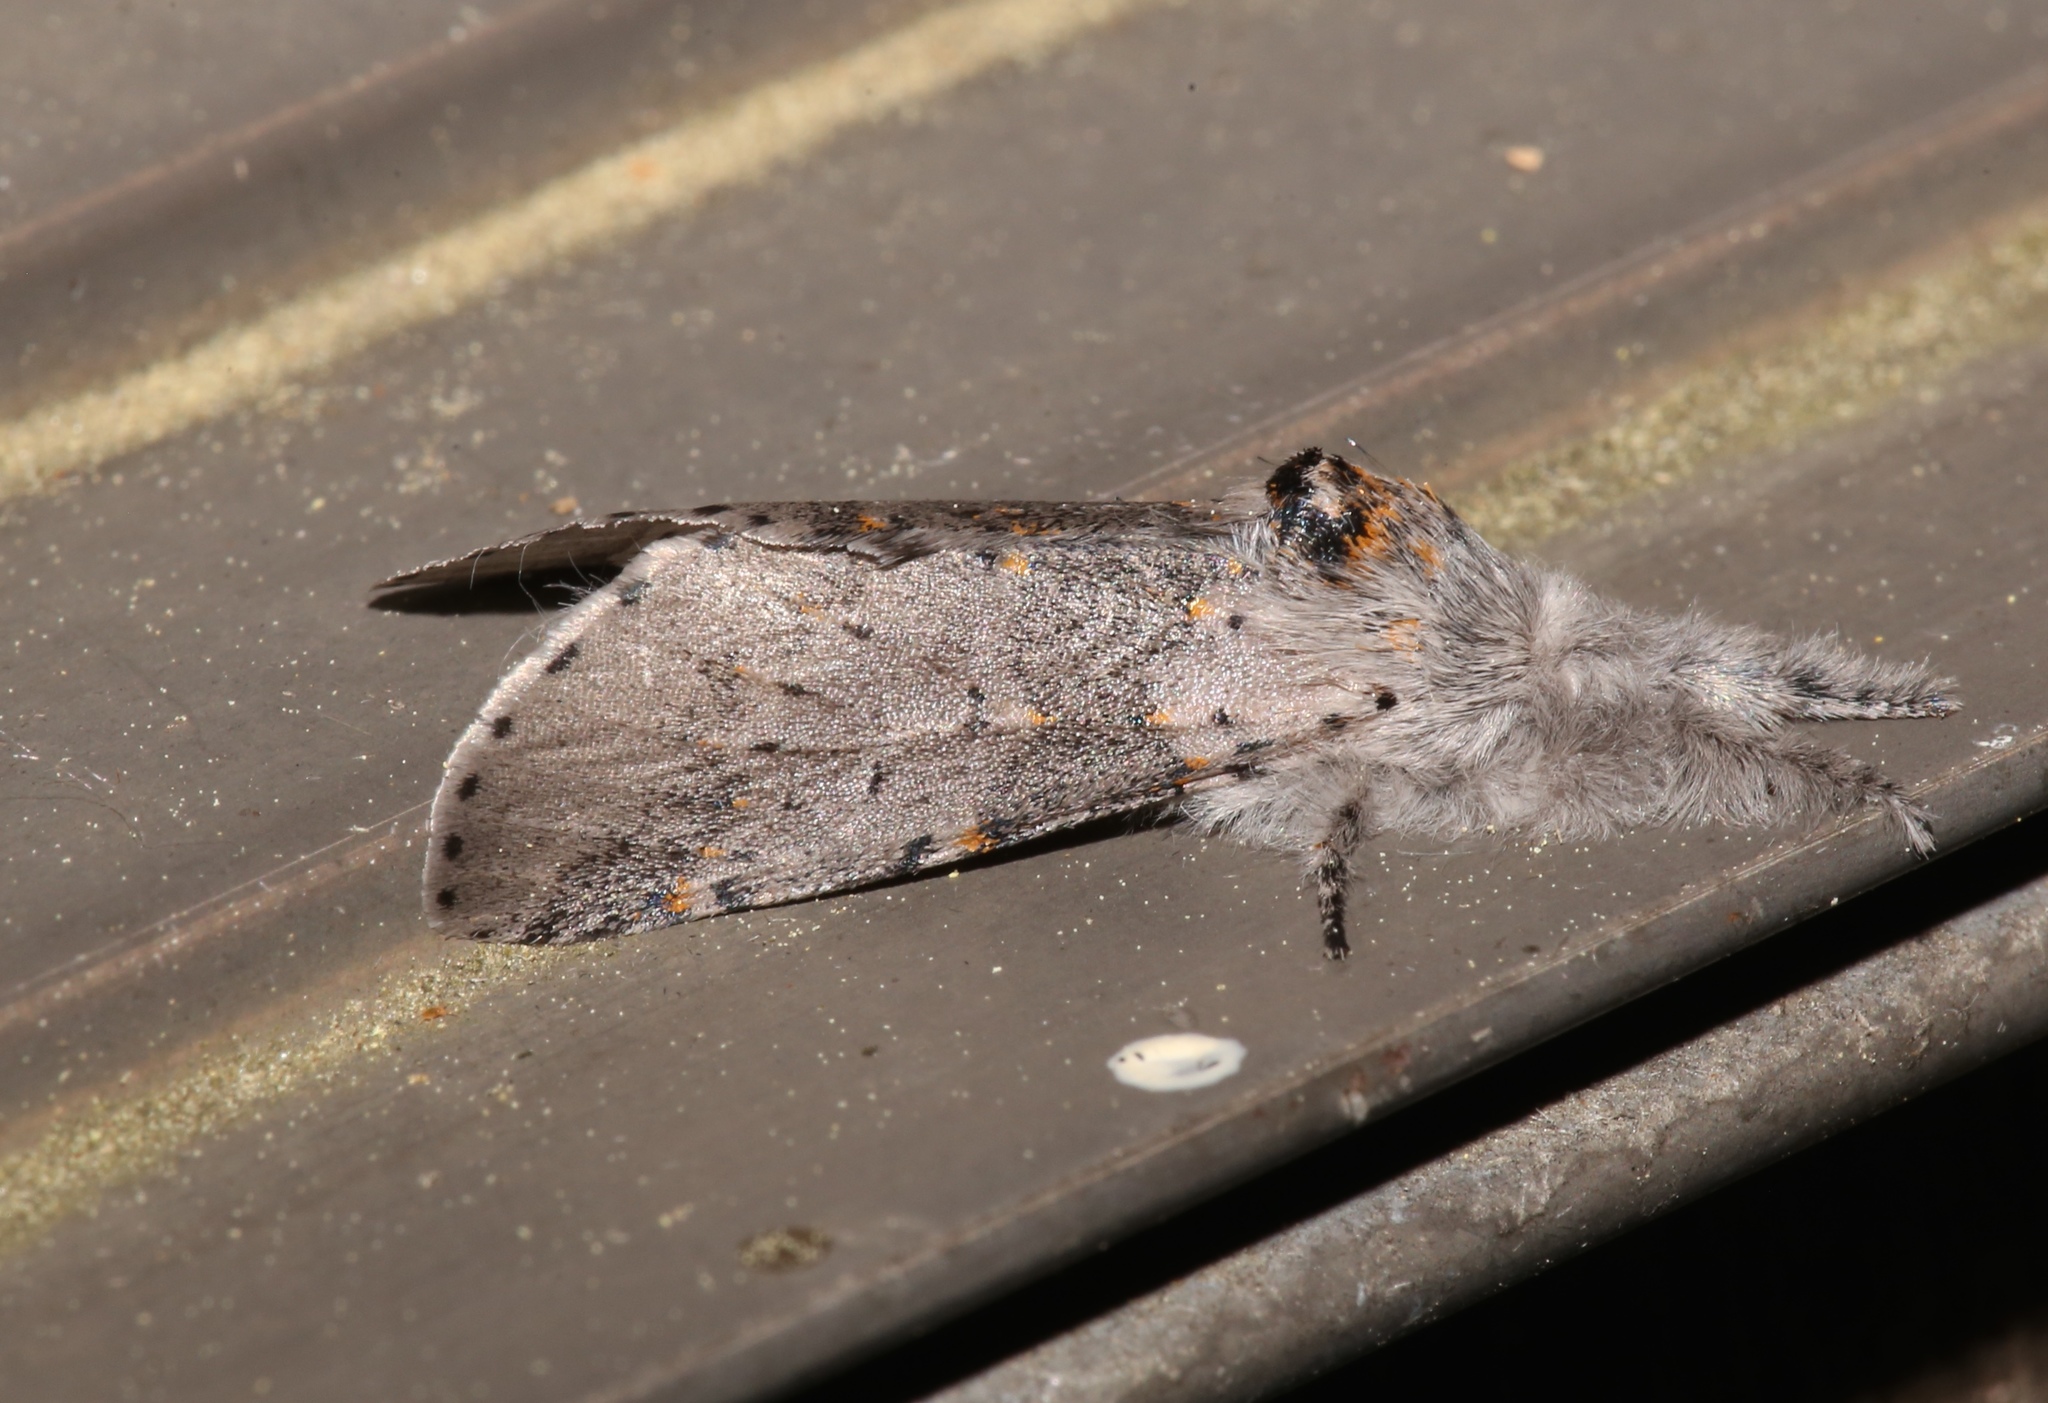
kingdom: Animalia
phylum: Arthropoda
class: Insecta
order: Lepidoptera
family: Notodontidae
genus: Furcula
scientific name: Furcula cinerea
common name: Gray furcula
